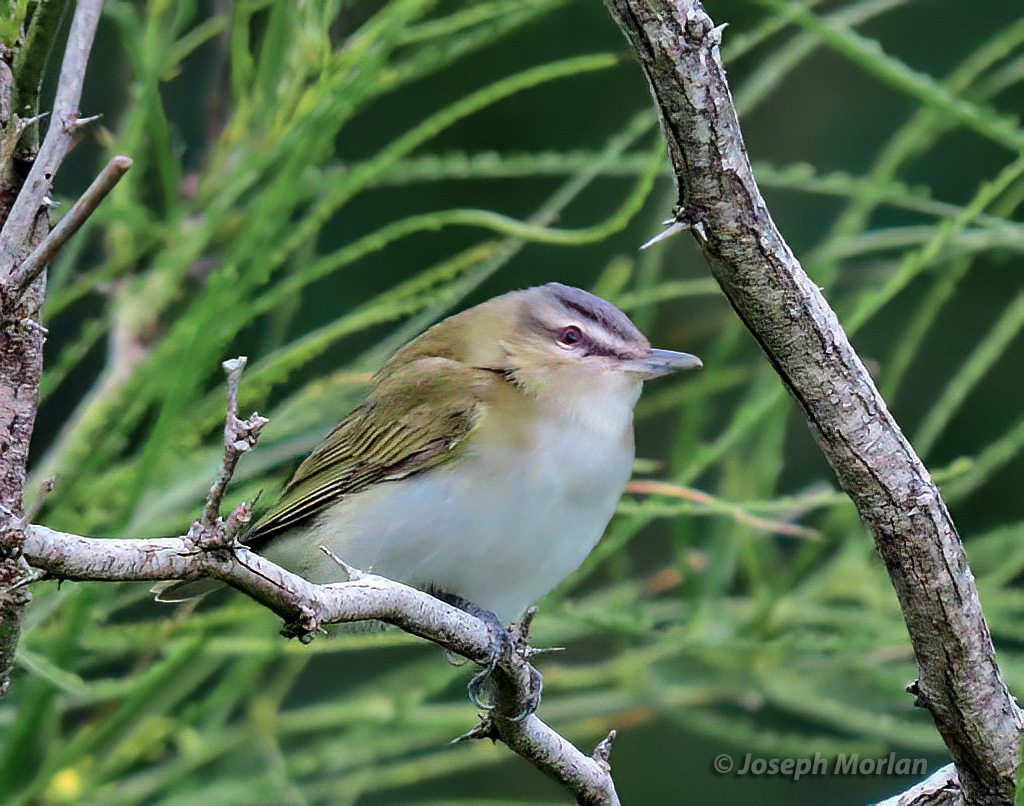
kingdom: Animalia
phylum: Chordata
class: Aves
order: Passeriformes
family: Vireonidae
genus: Vireo
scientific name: Vireo olivaceus
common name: Red-eyed vireo
